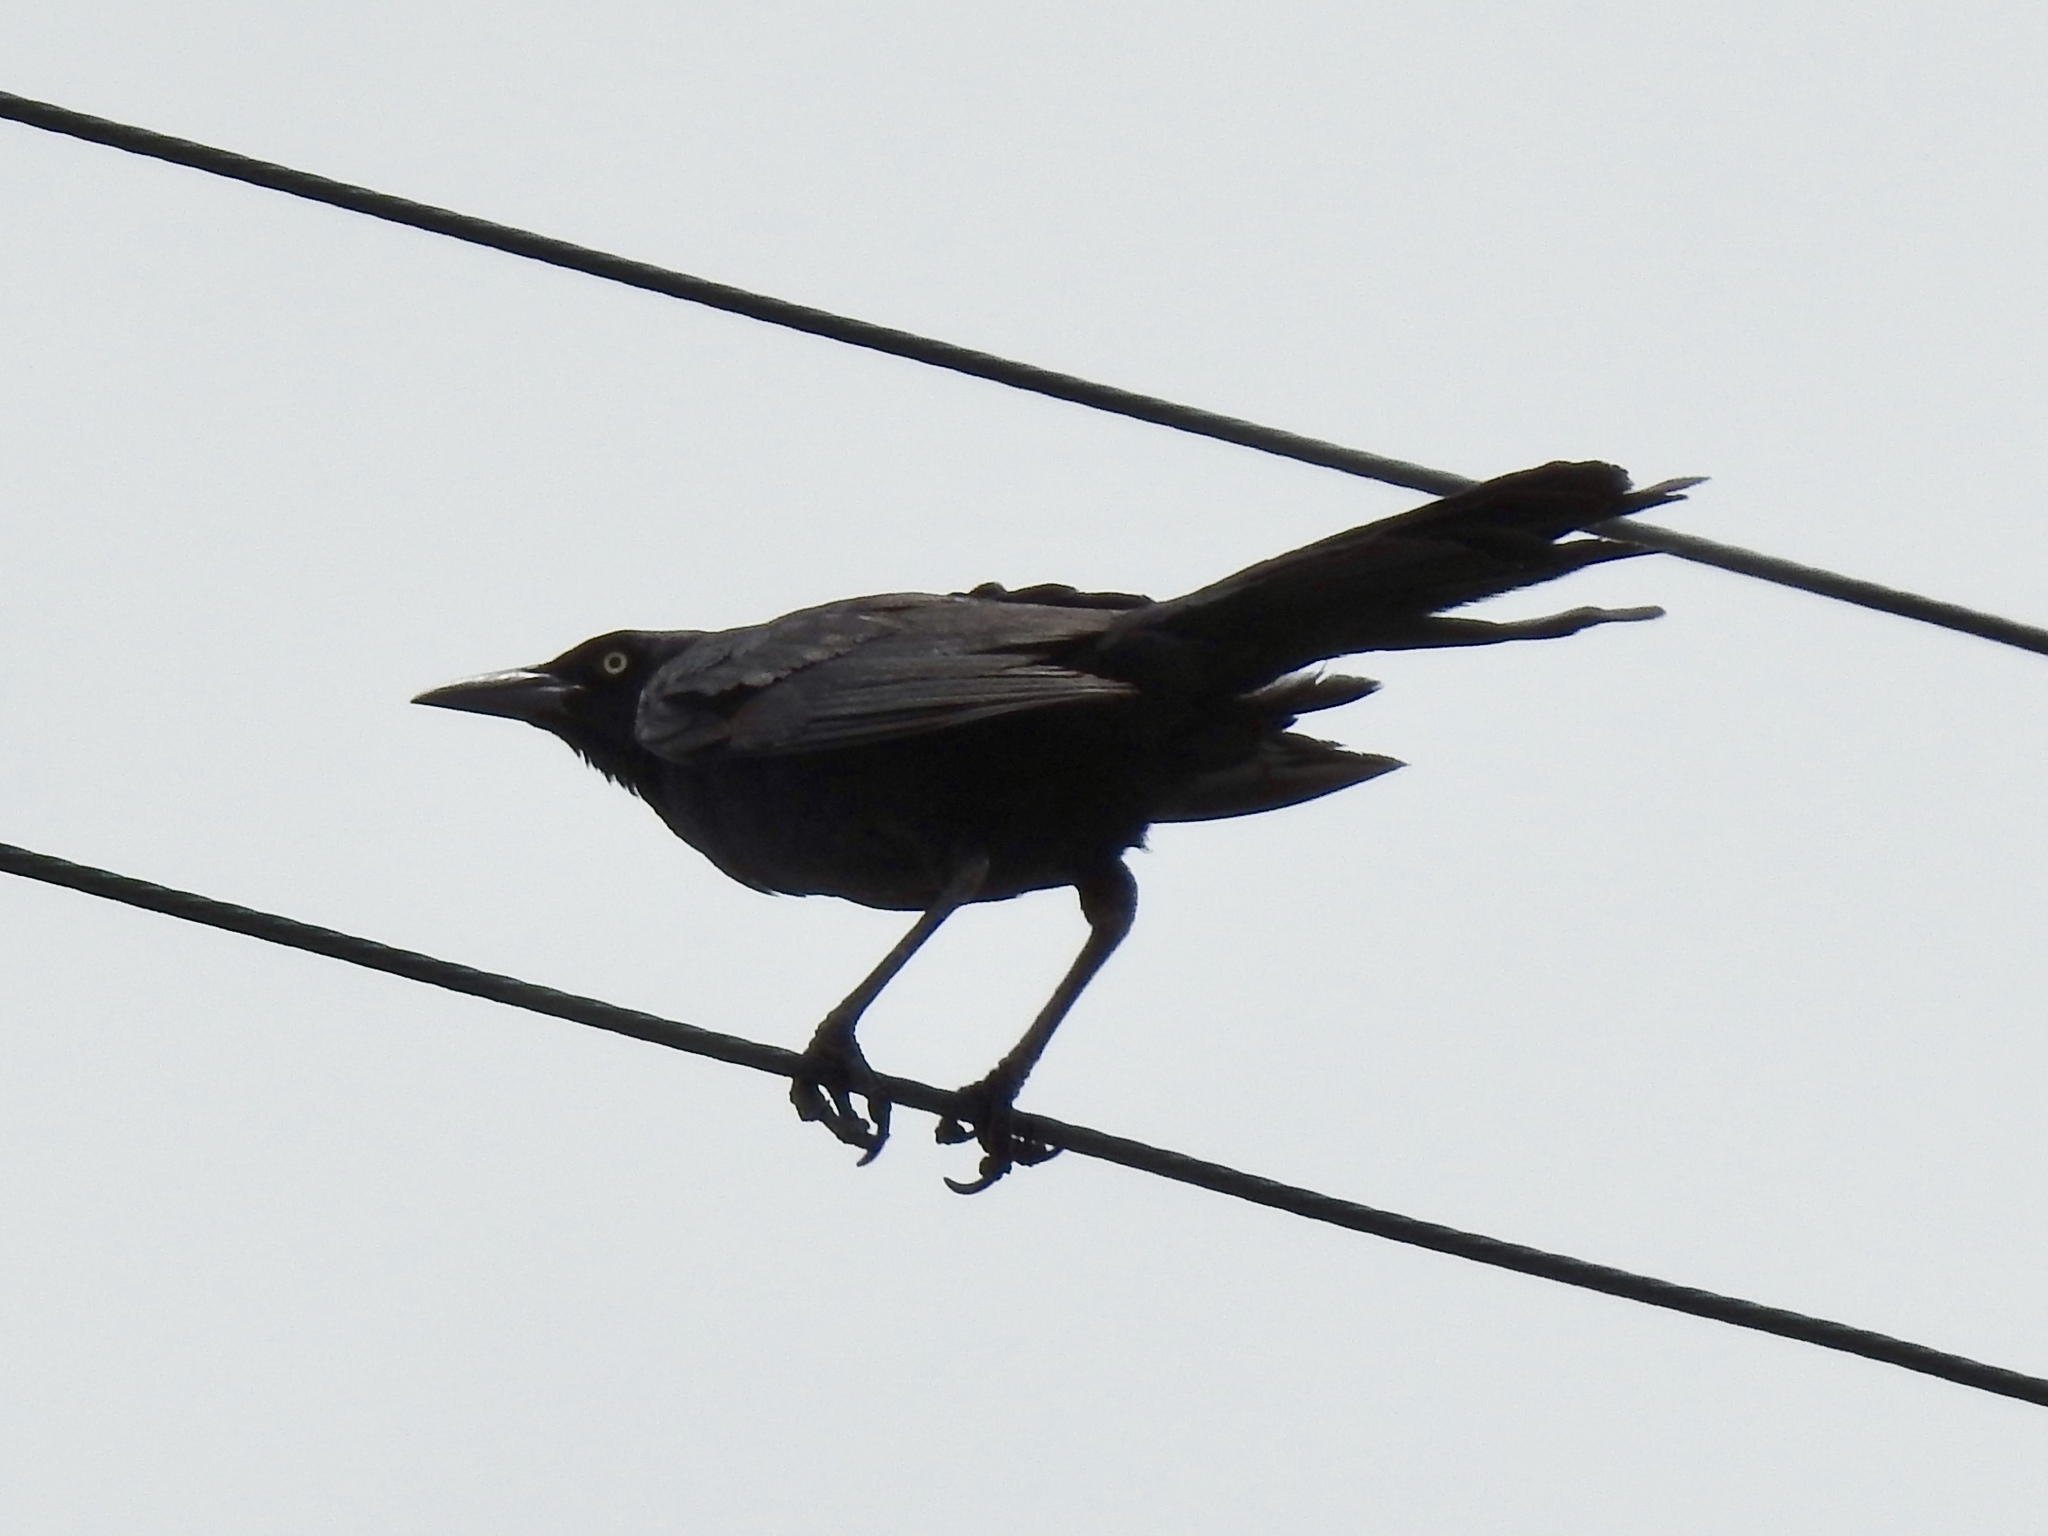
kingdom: Animalia
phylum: Chordata
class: Aves
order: Passeriformes
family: Icteridae
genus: Quiscalus
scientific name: Quiscalus mexicanus
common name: Great-tailed grackle
